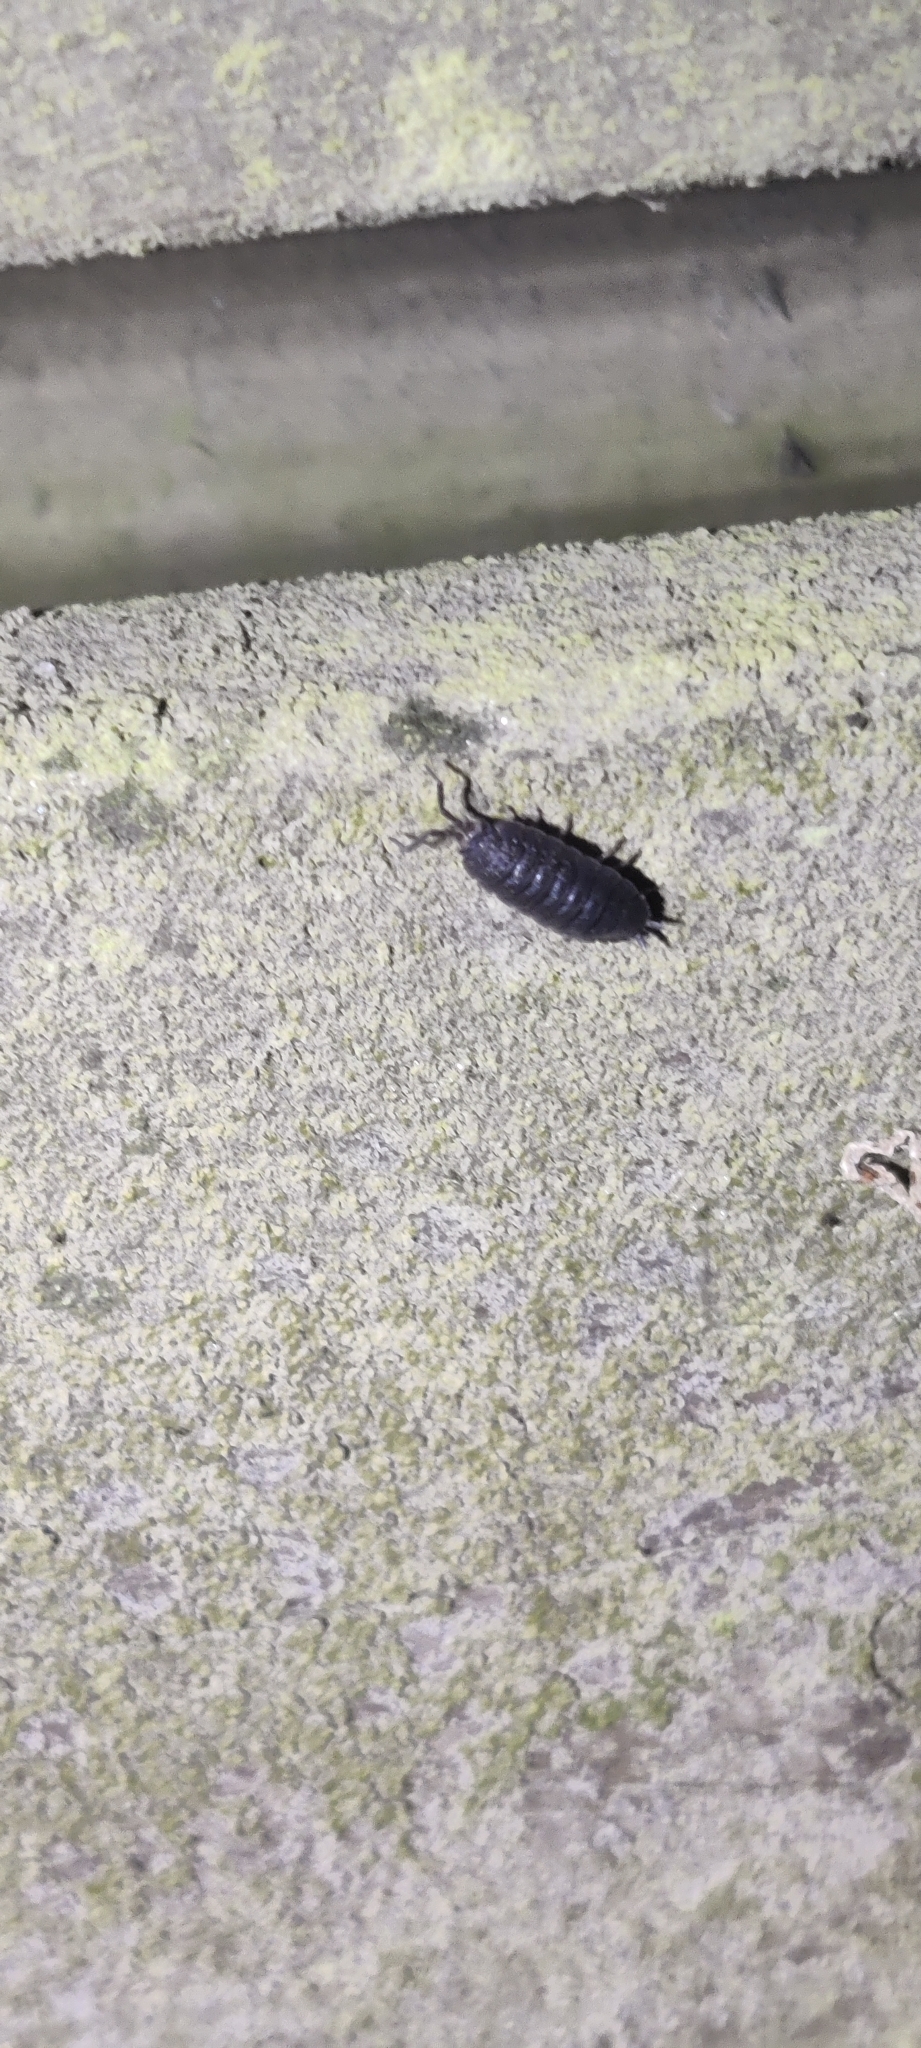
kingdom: Animalia
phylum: Arthropoda
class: Malacostraca
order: Isopoda
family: Porcellionidae
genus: Porcellio
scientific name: Porcellio scaber
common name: Common rough woodlouse
